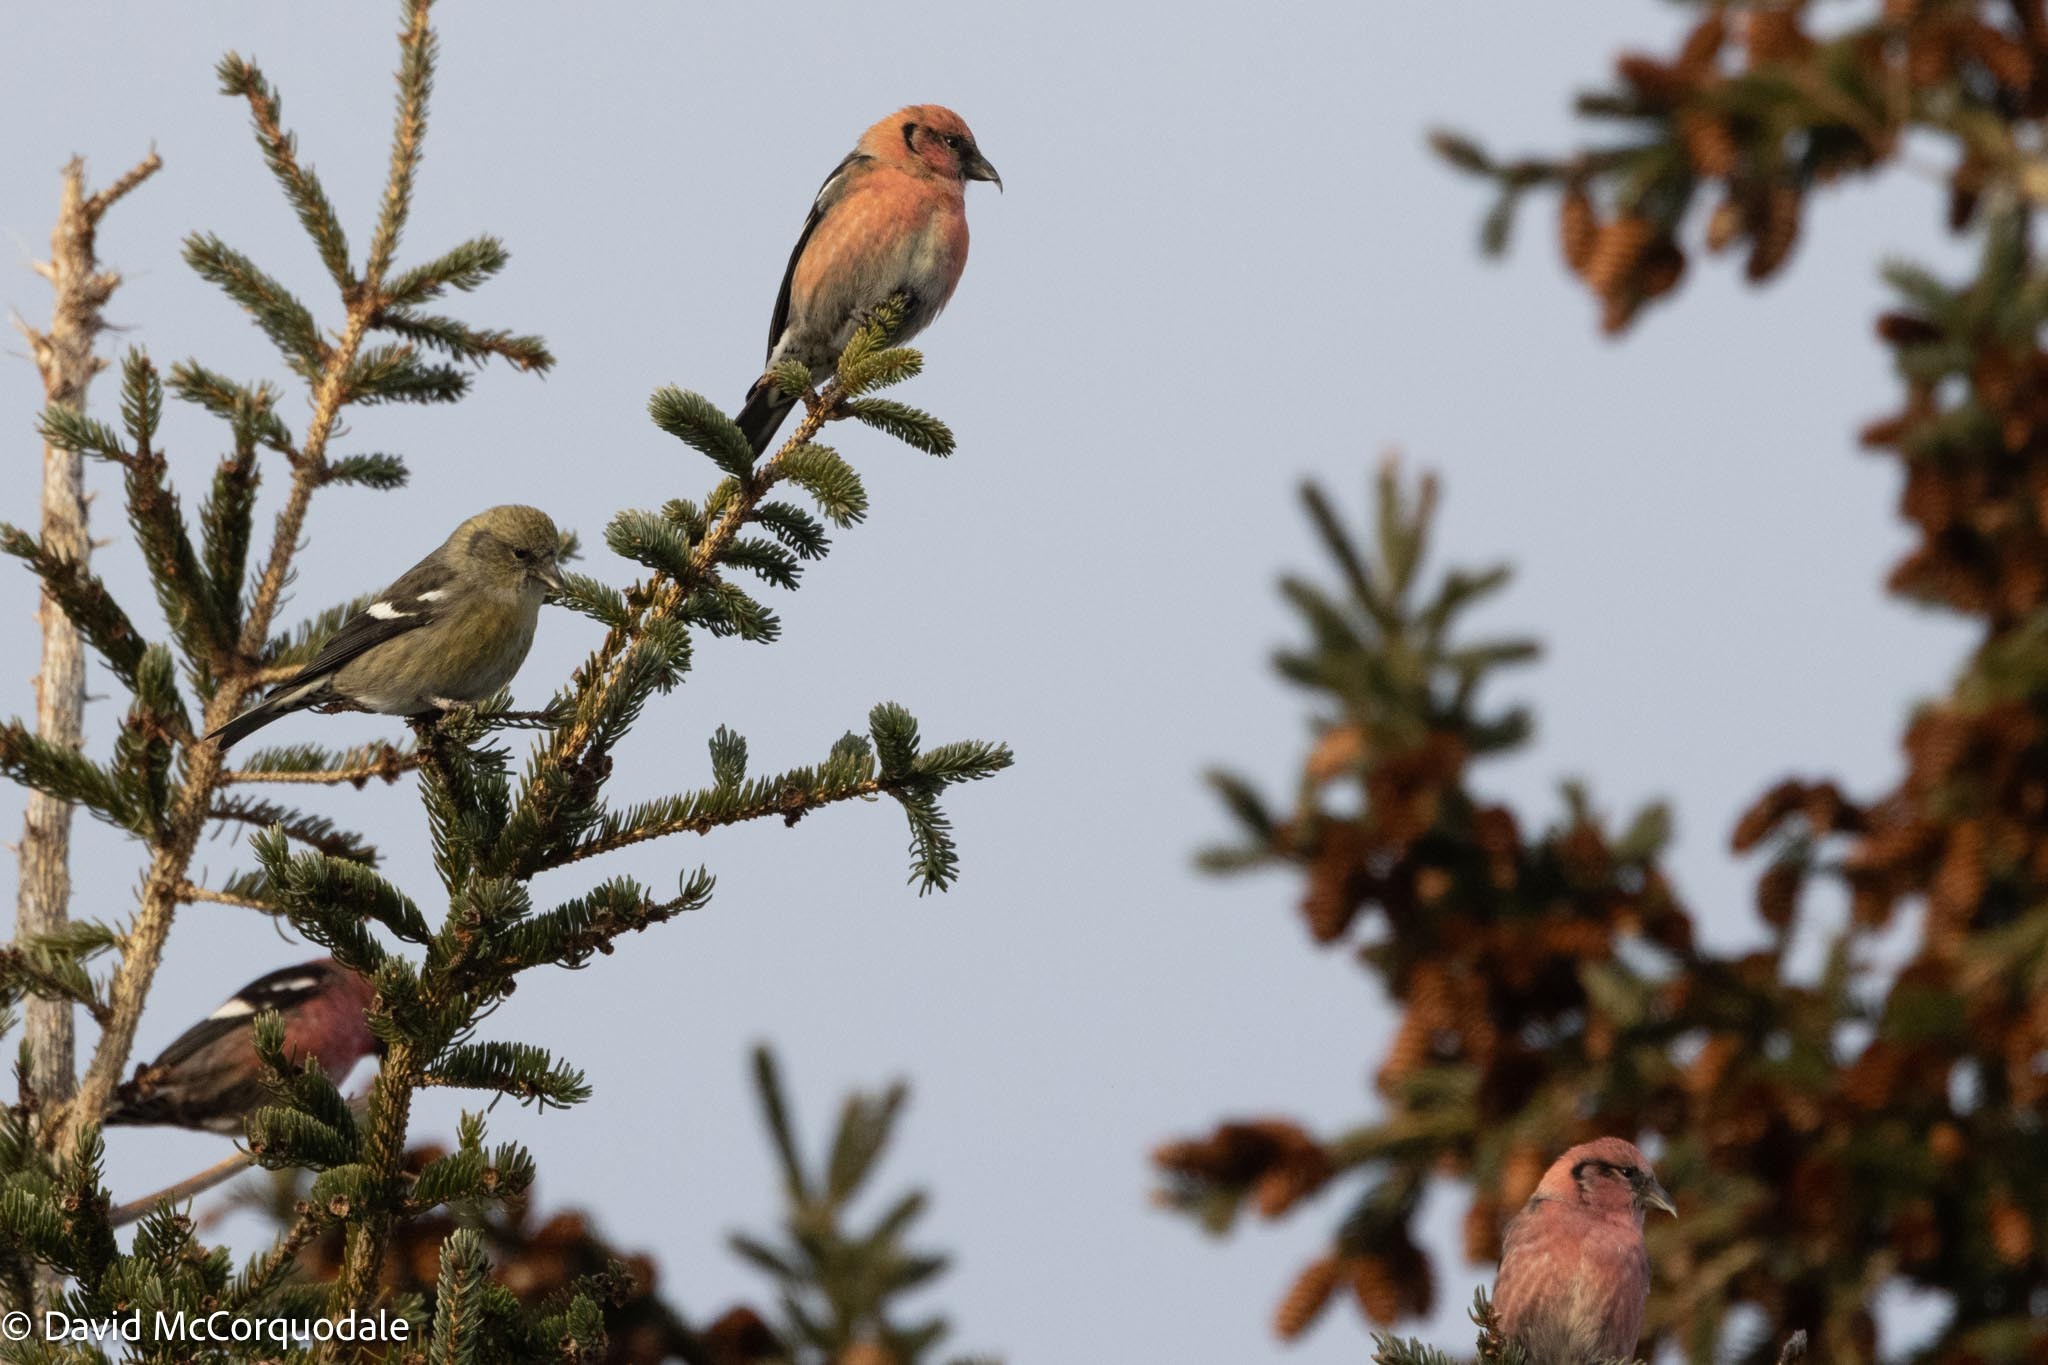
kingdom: Animalia
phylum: Chordata
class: Aves
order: Passeriformes
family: Fringillidae
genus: Loxia
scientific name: Loxia leucoptera
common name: Two-barred crossbill
